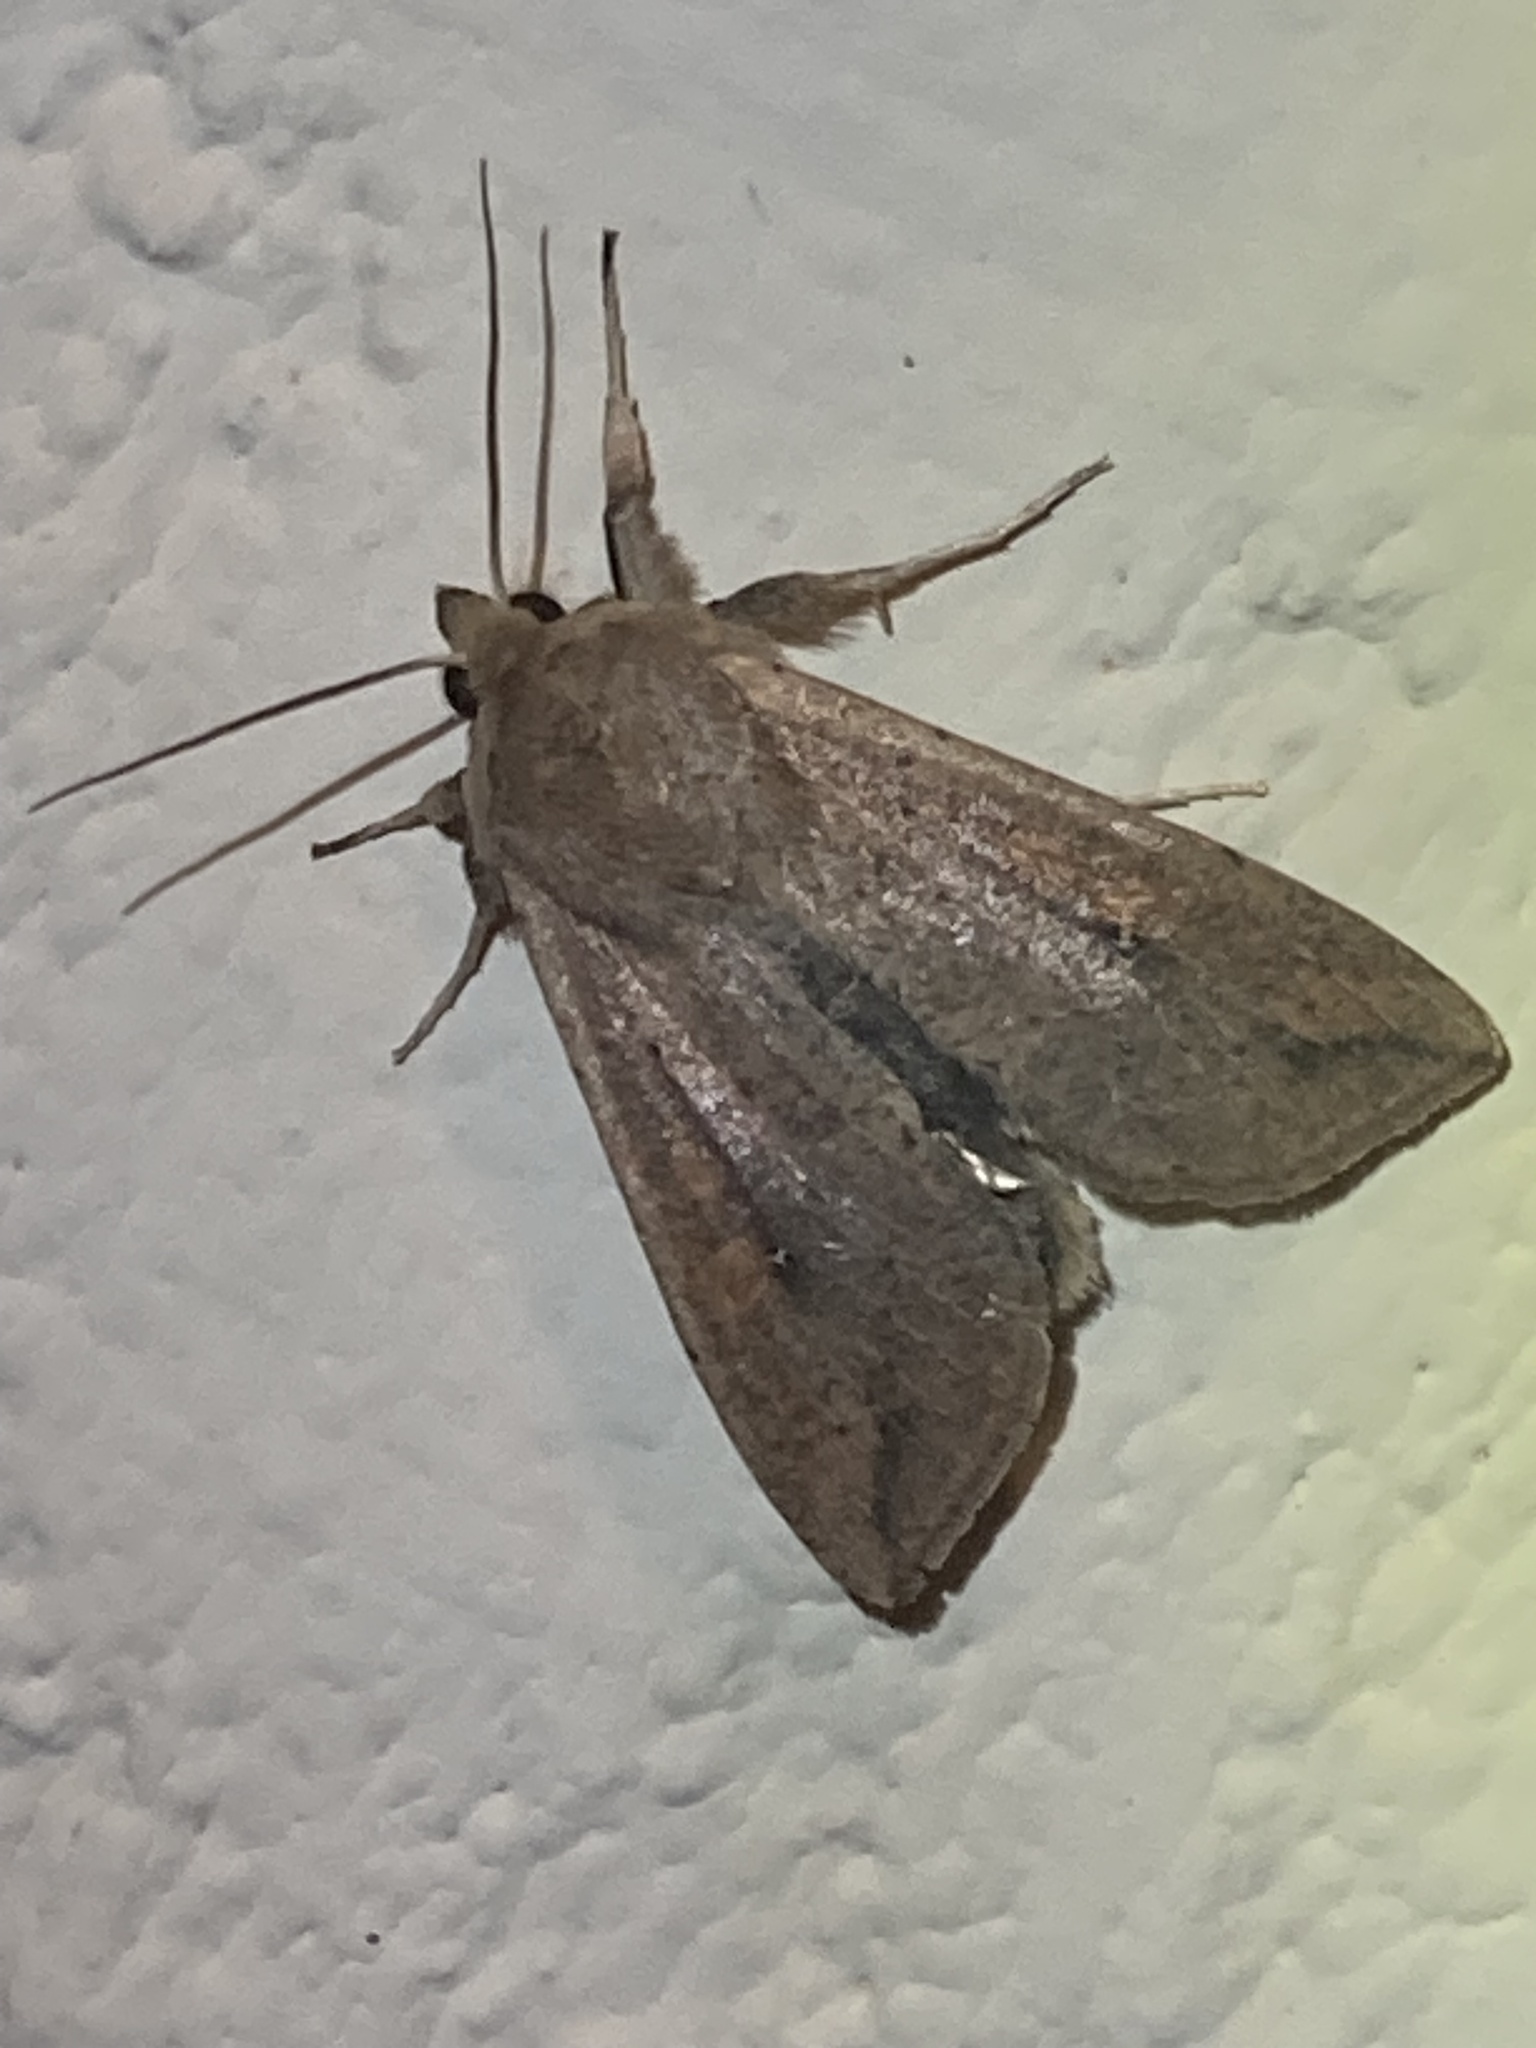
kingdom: Animalia
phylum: Arthropoda
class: Insecta
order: Lepidoptera
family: Noctuidae
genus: Mythimna
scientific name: Mythimna unipuncta
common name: White-speck
